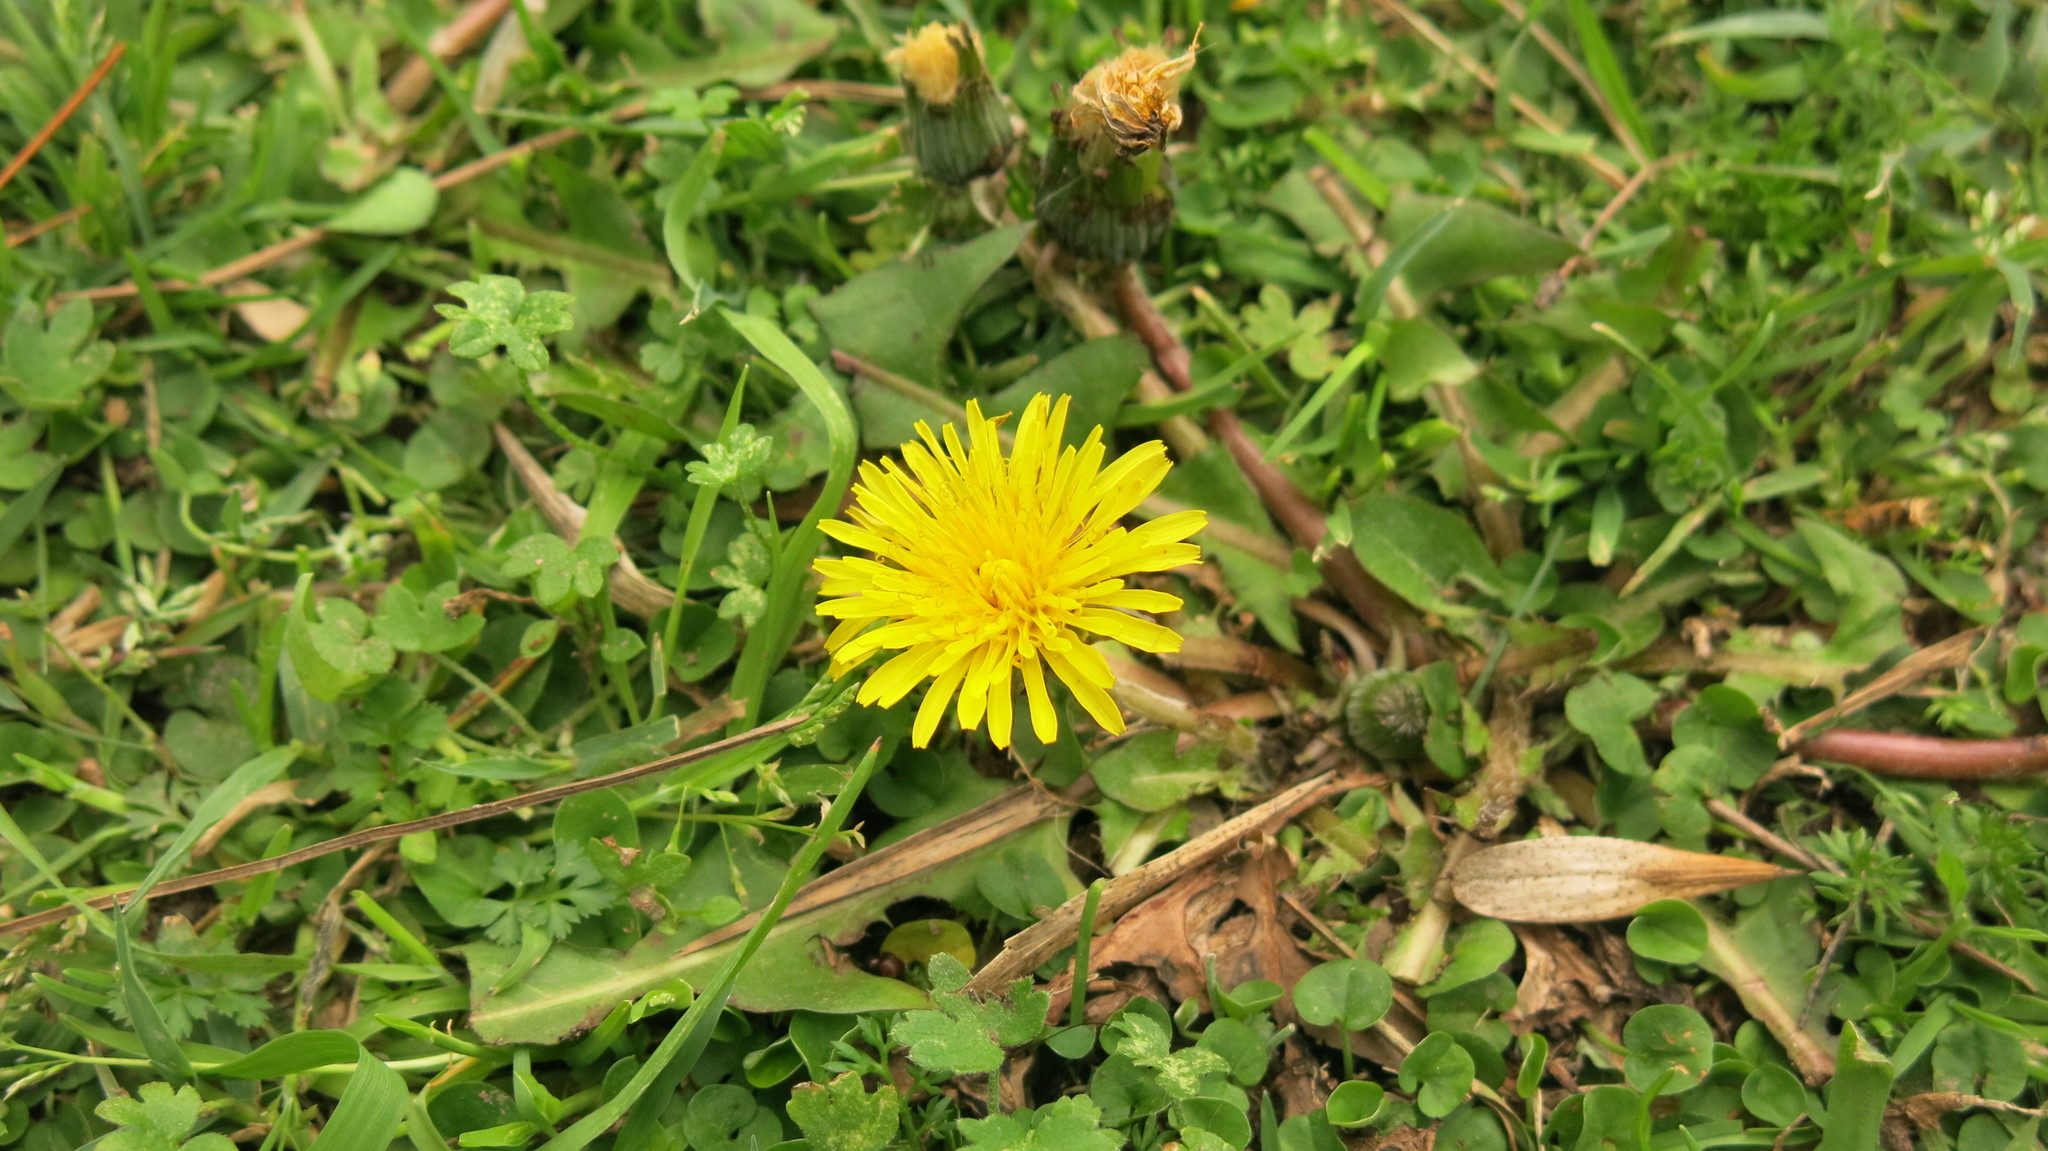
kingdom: Plantae
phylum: Tracheophyta
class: Magnoliopsida
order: Asterales
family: Asteraceae
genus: Taraxacum
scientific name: Taraxacum officinale
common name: Common dandelion
